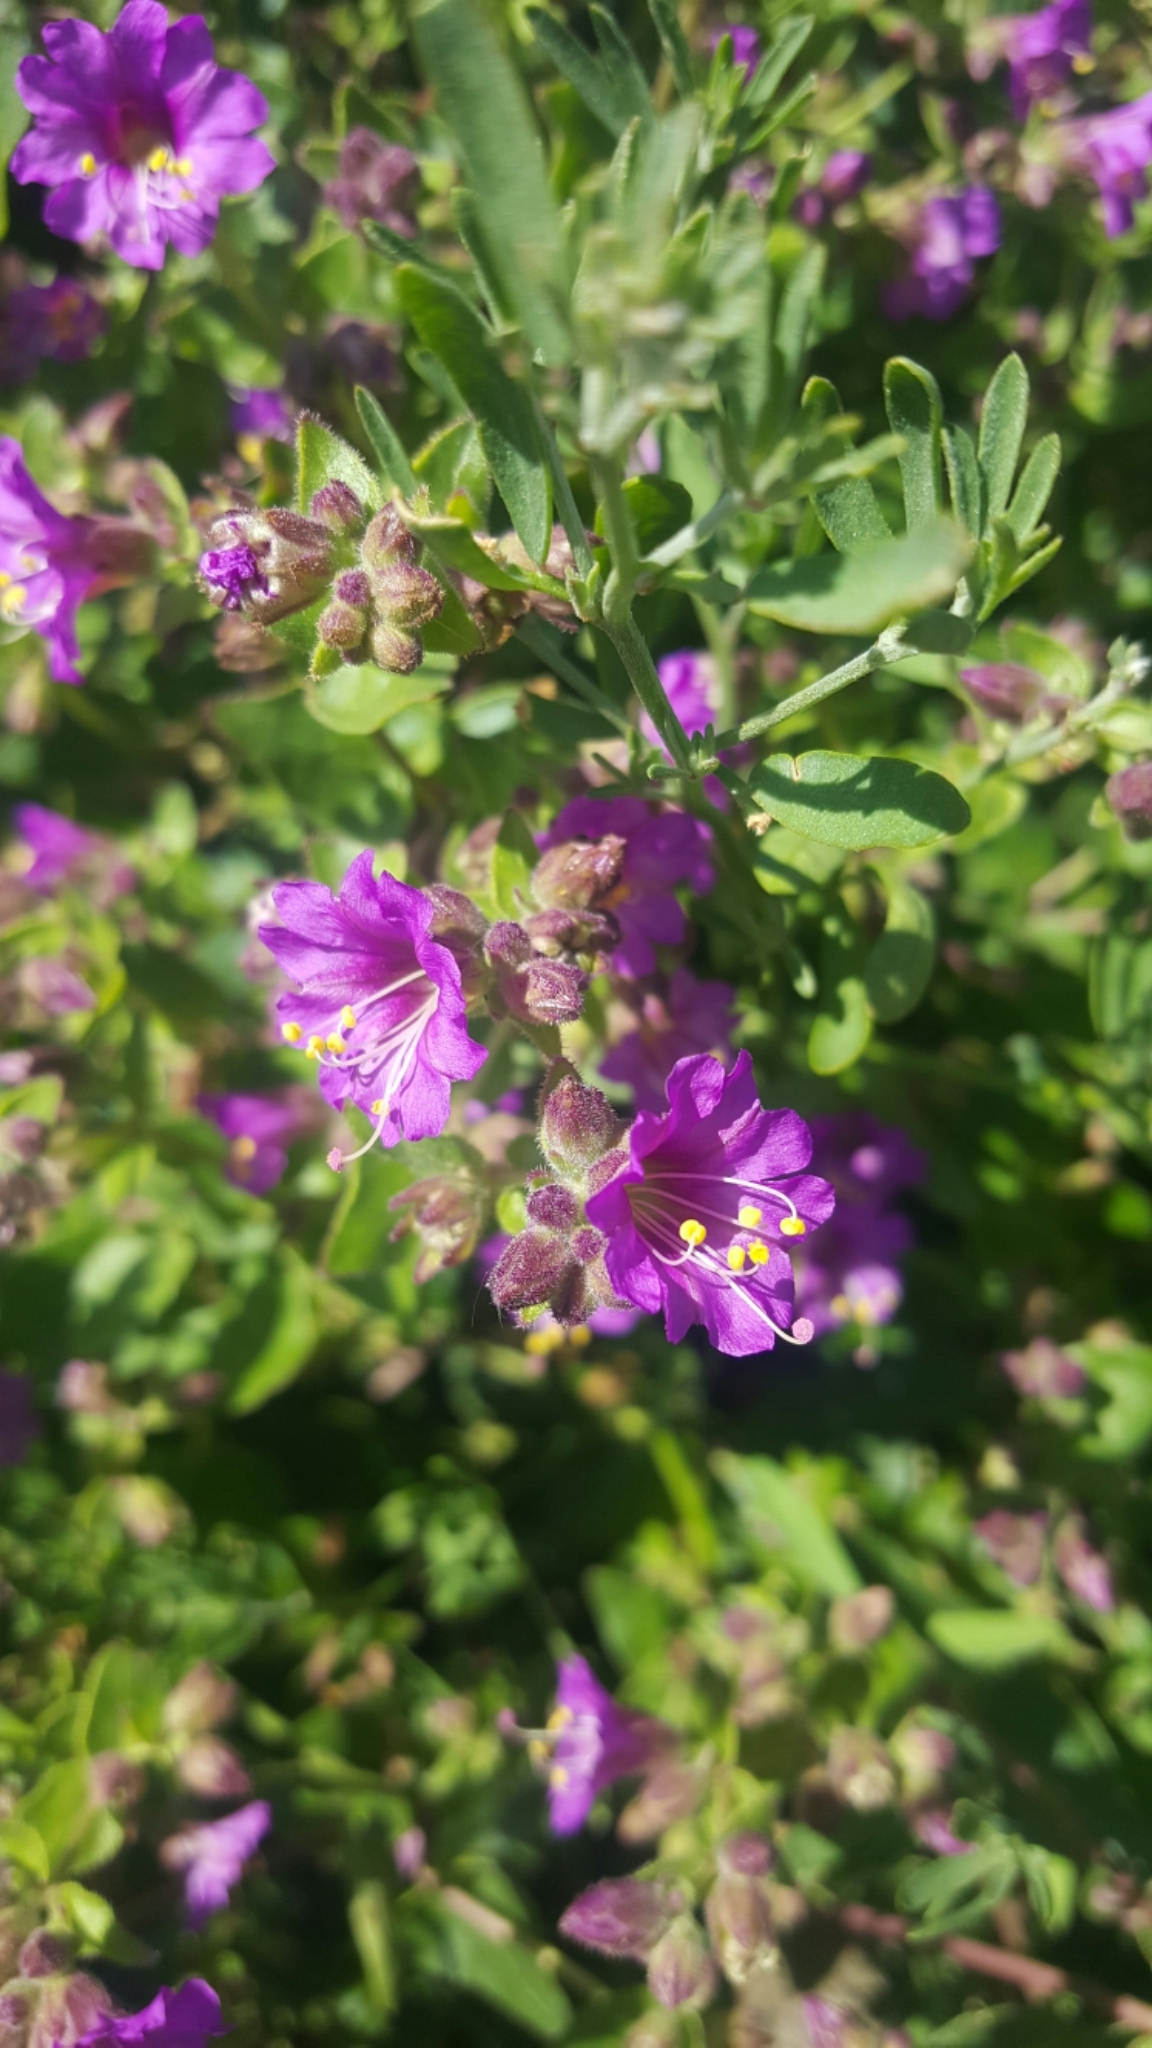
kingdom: Plantae
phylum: Tracheophyta
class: Magnoliopsida
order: Caryophyllales
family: Nyctaginaceae
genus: Mirabilis
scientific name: Mirabilis laevis
